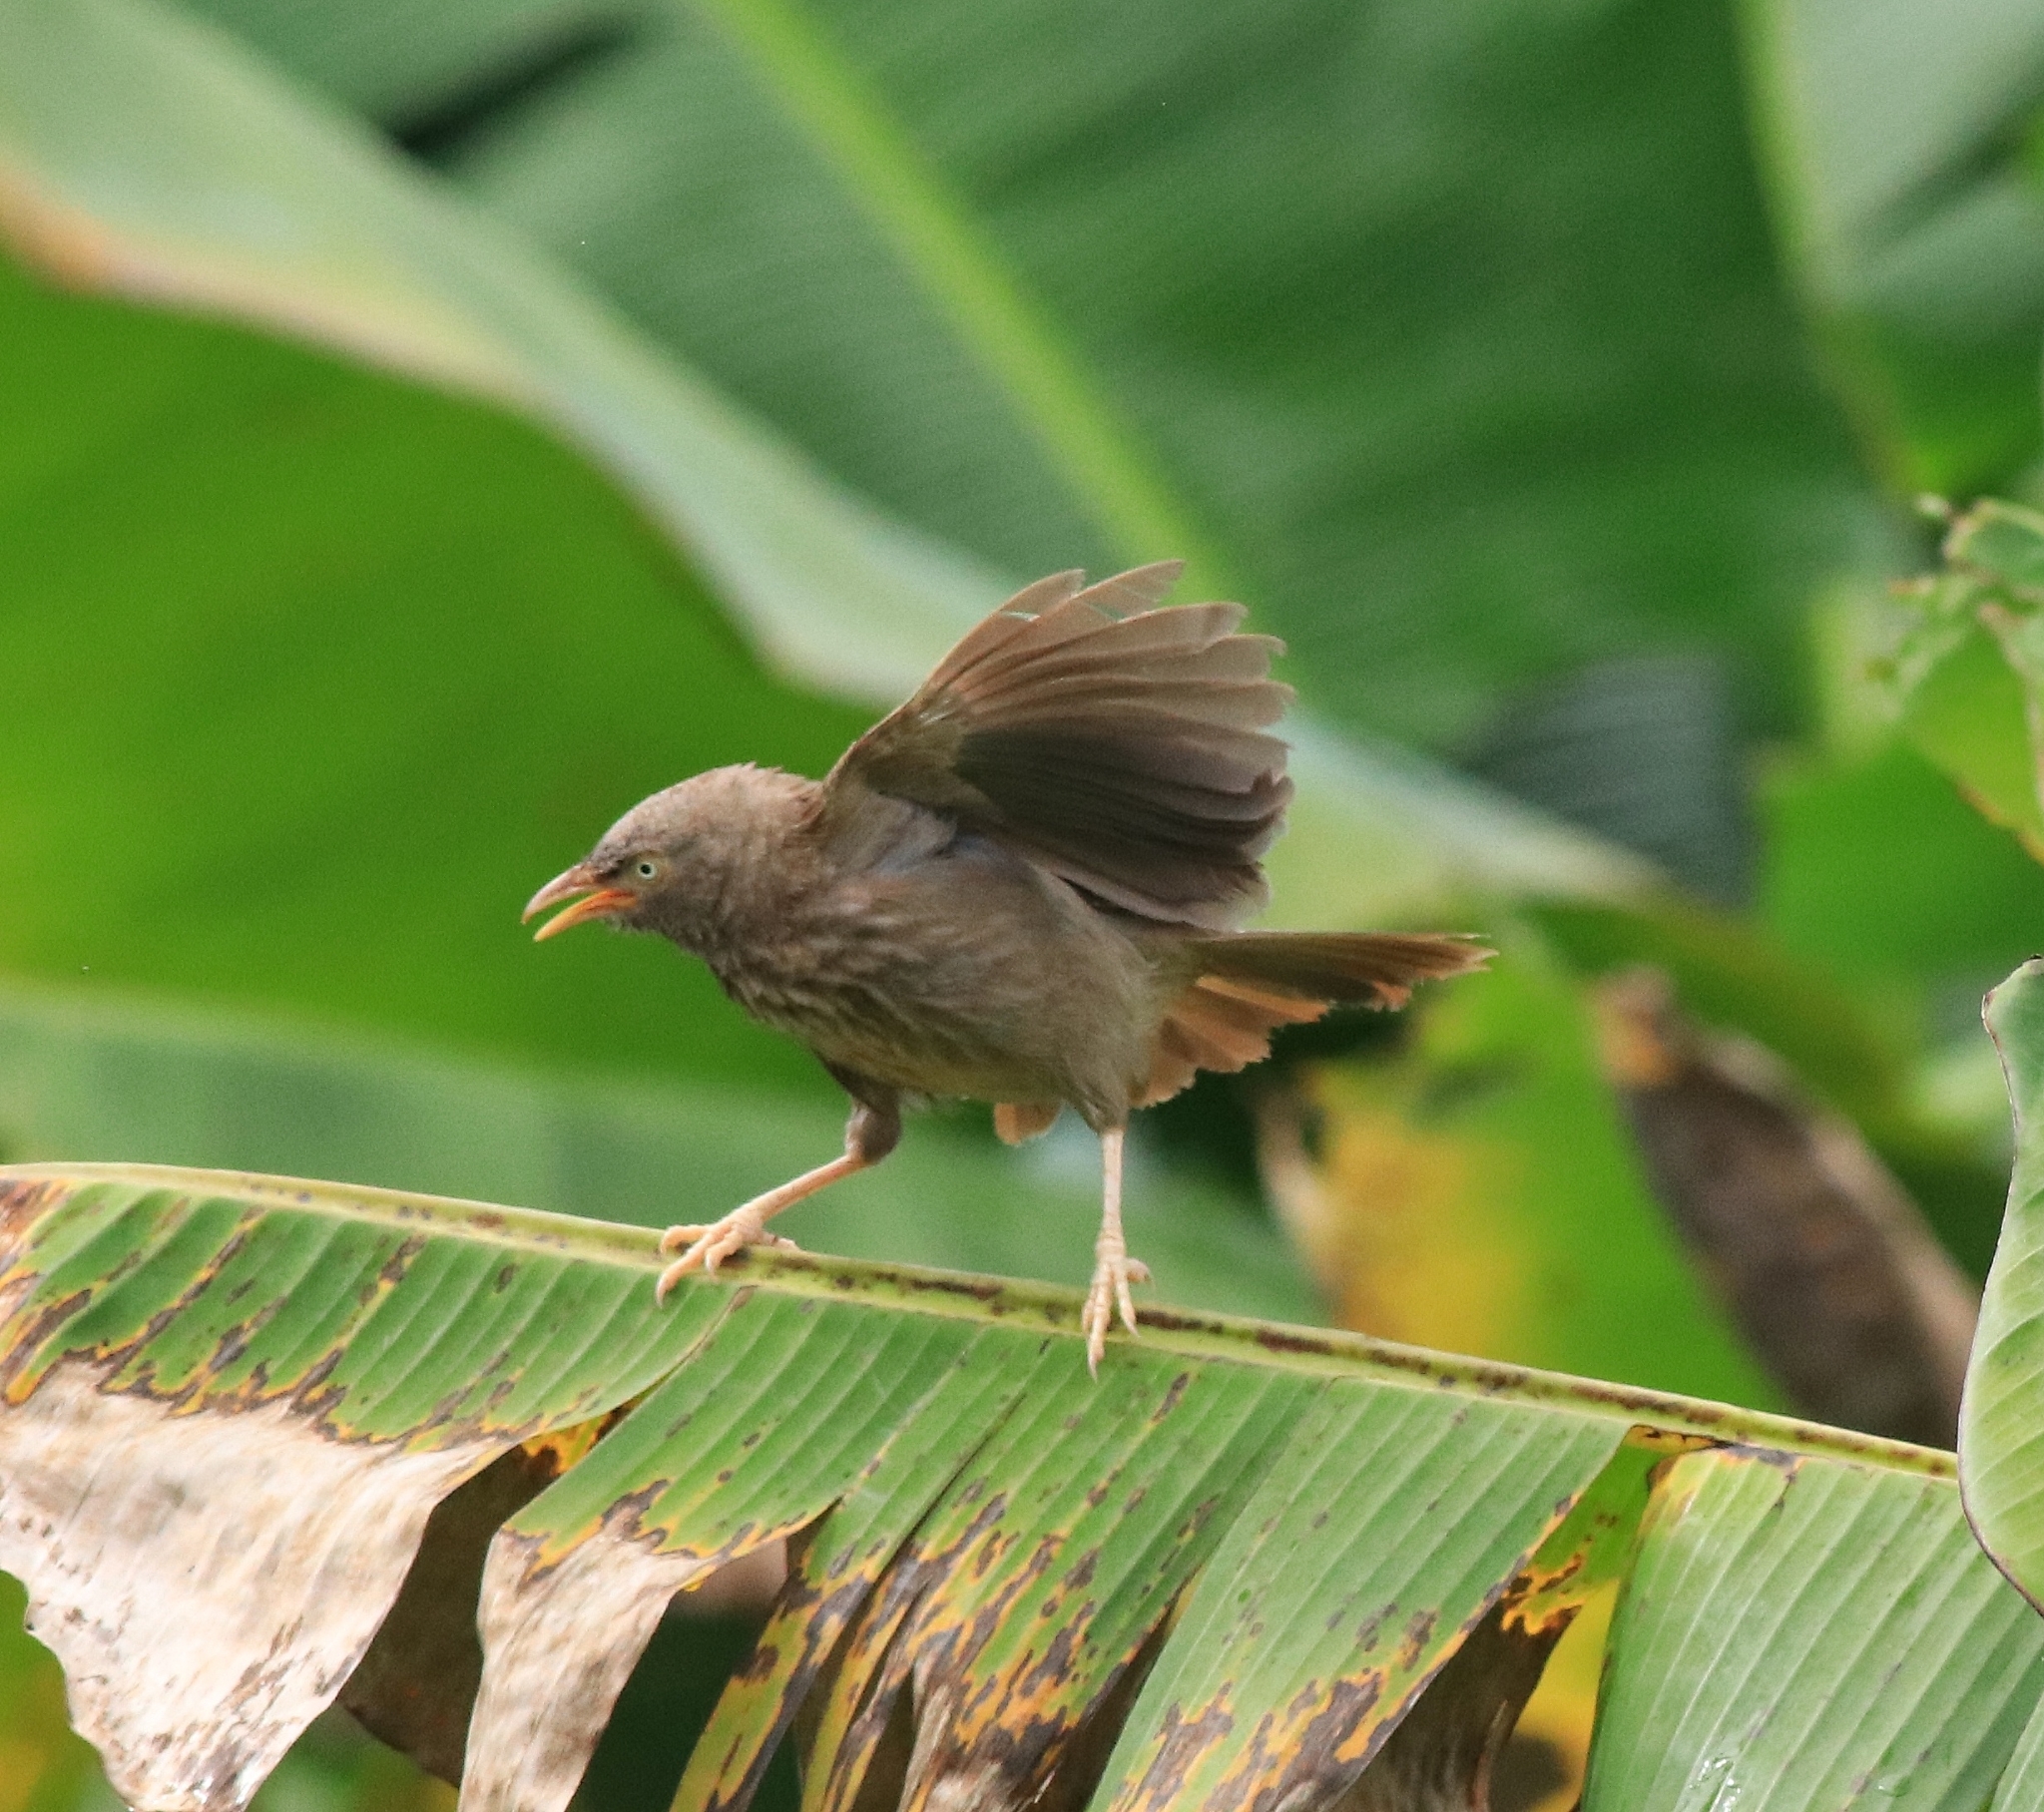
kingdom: Animalia
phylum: Chordata
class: Aves
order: Passeriformes
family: Leiothrichidae
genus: Turdoides
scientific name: Turdoides striata
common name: Jungle babbler
